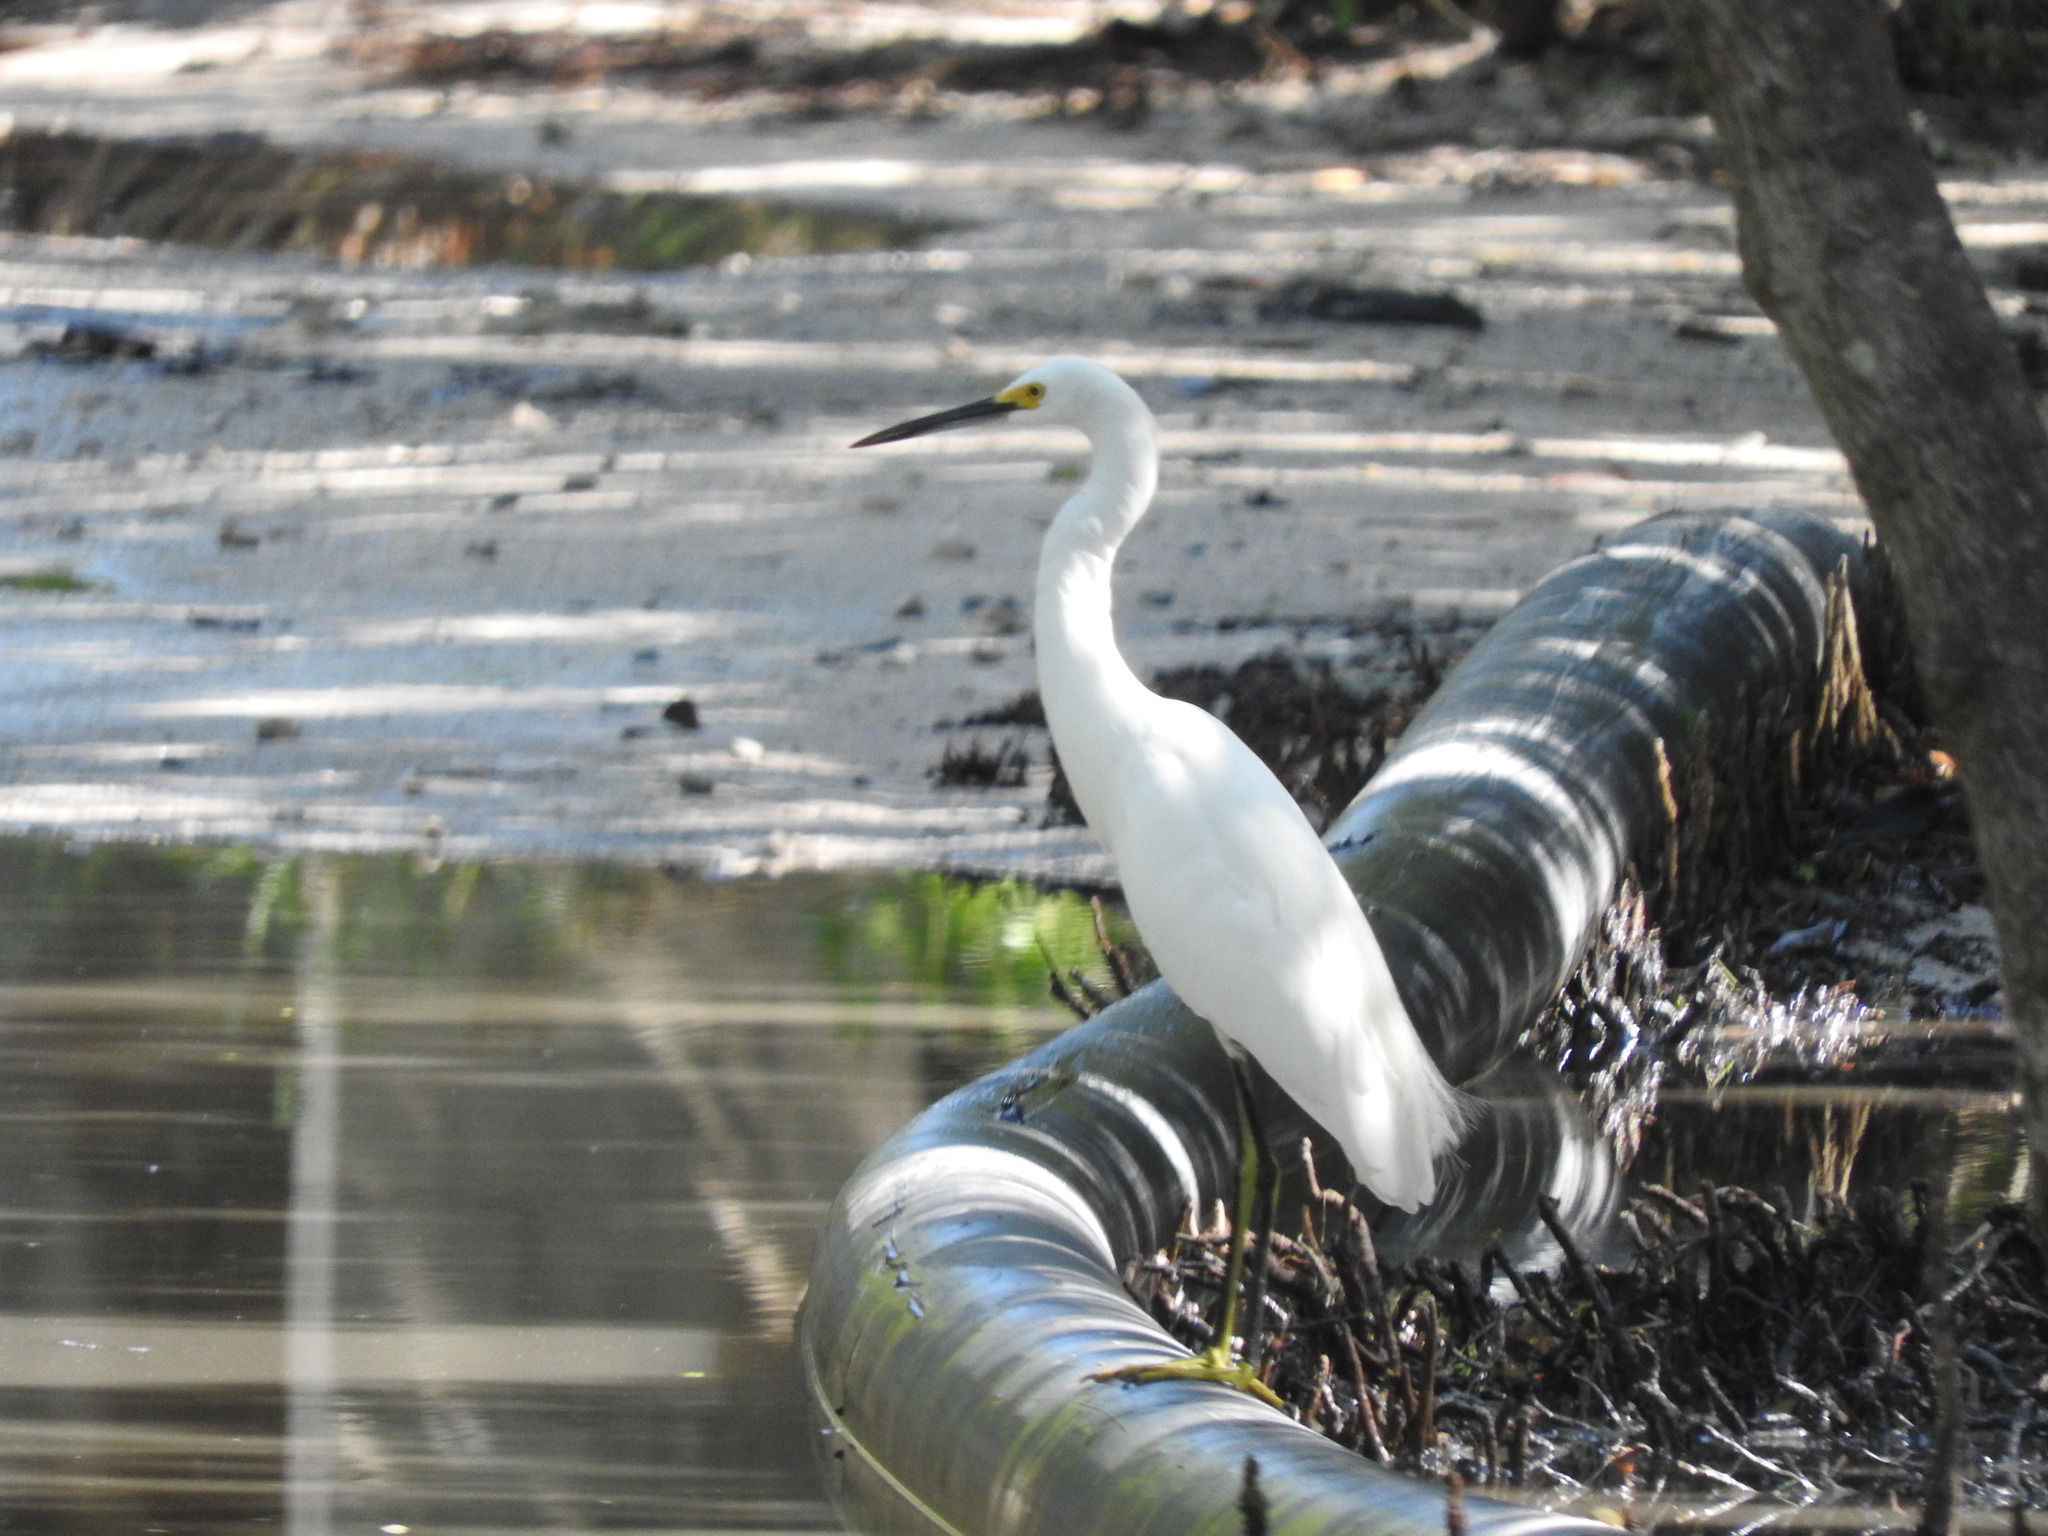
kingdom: Animalia
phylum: Chordata
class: Aves
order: Pelecaniformes
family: Ardeidae
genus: Egretta
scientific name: Egretta thula
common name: Snowy egret
